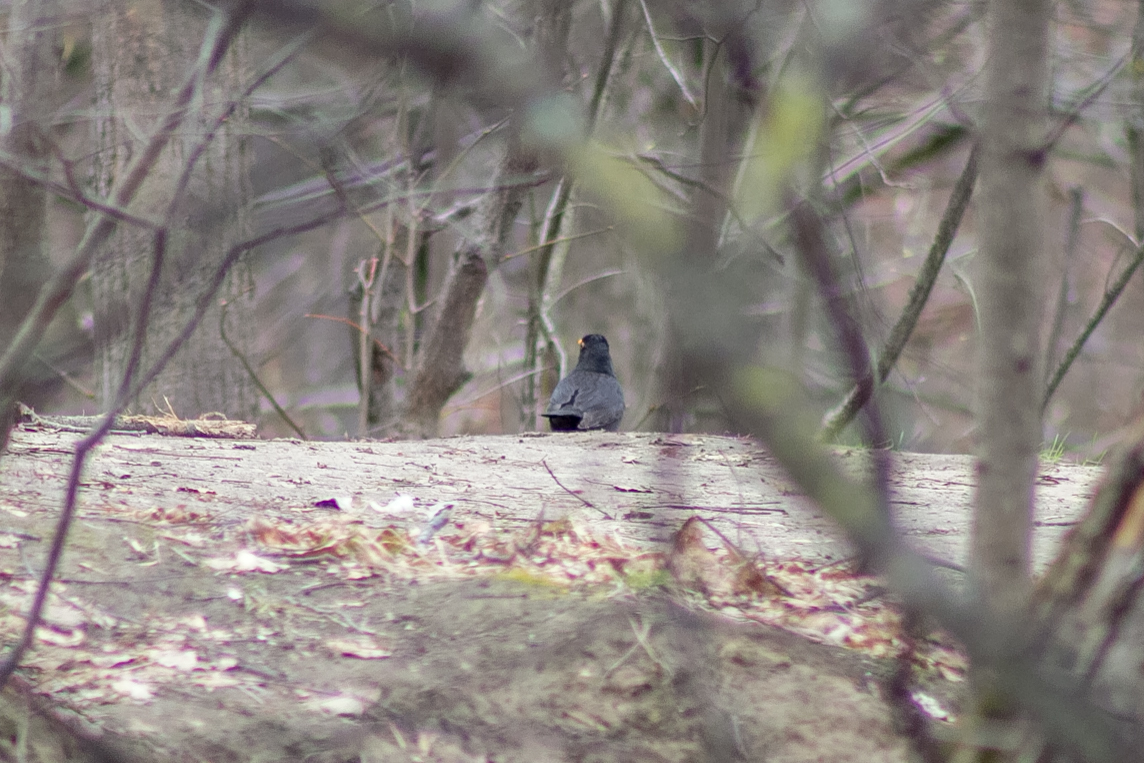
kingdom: Animalia
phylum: Chordata
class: Aves
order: Passeriformes
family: Turdidae
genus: Turdus
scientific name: Turdus merula
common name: Common blackbird
